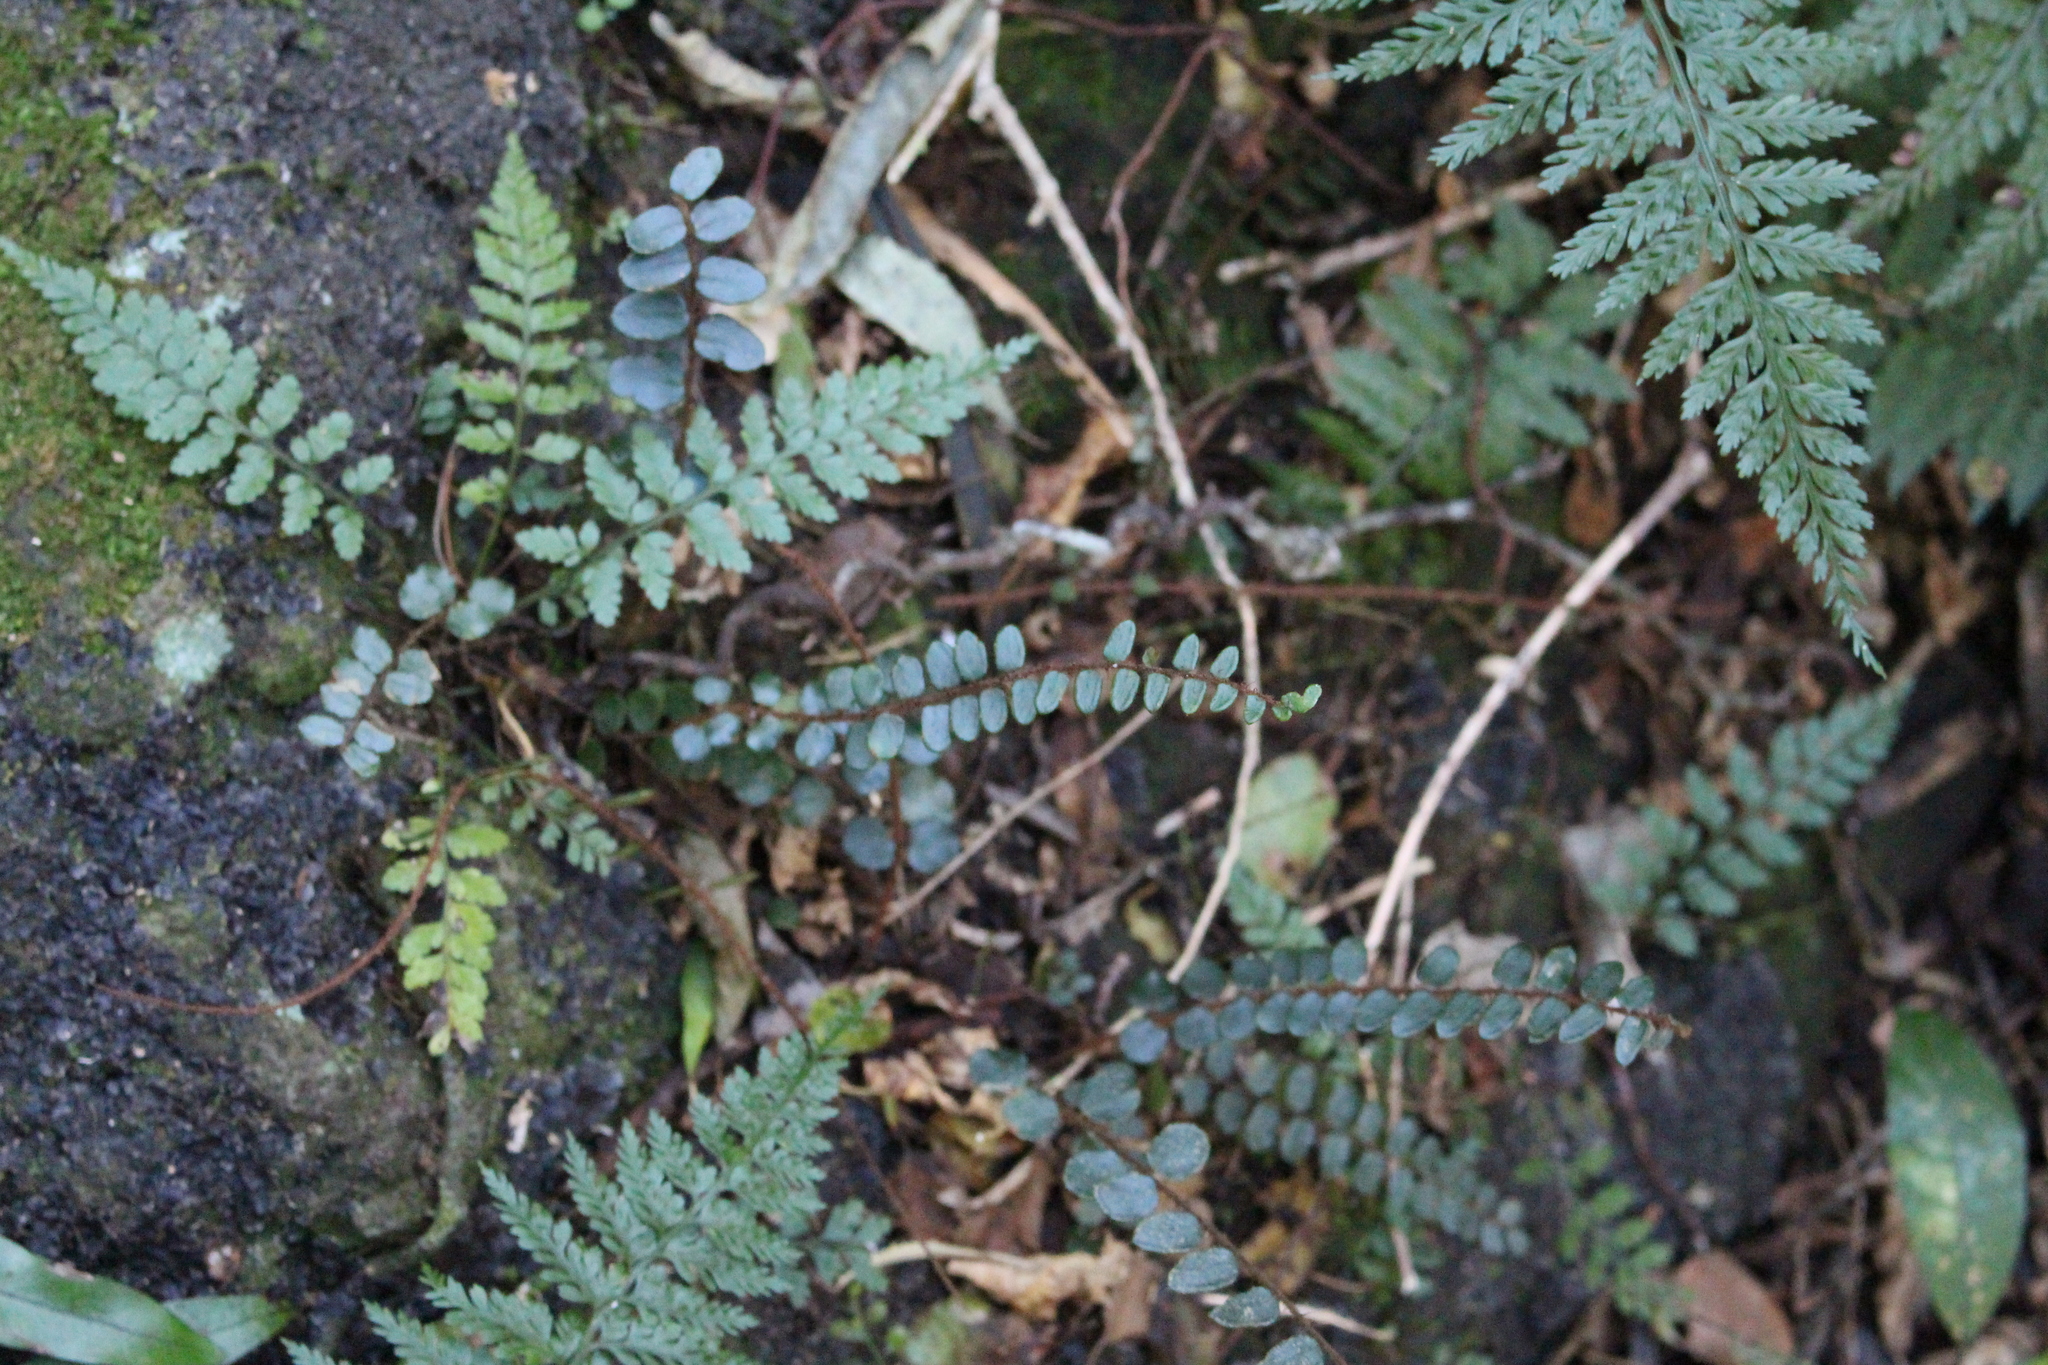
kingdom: Plantae
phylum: Tracheophyta
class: Polypodiopsida
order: Polypodiales
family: Pteridaceae
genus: Pellaea
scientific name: Pellaea rotundifolia
